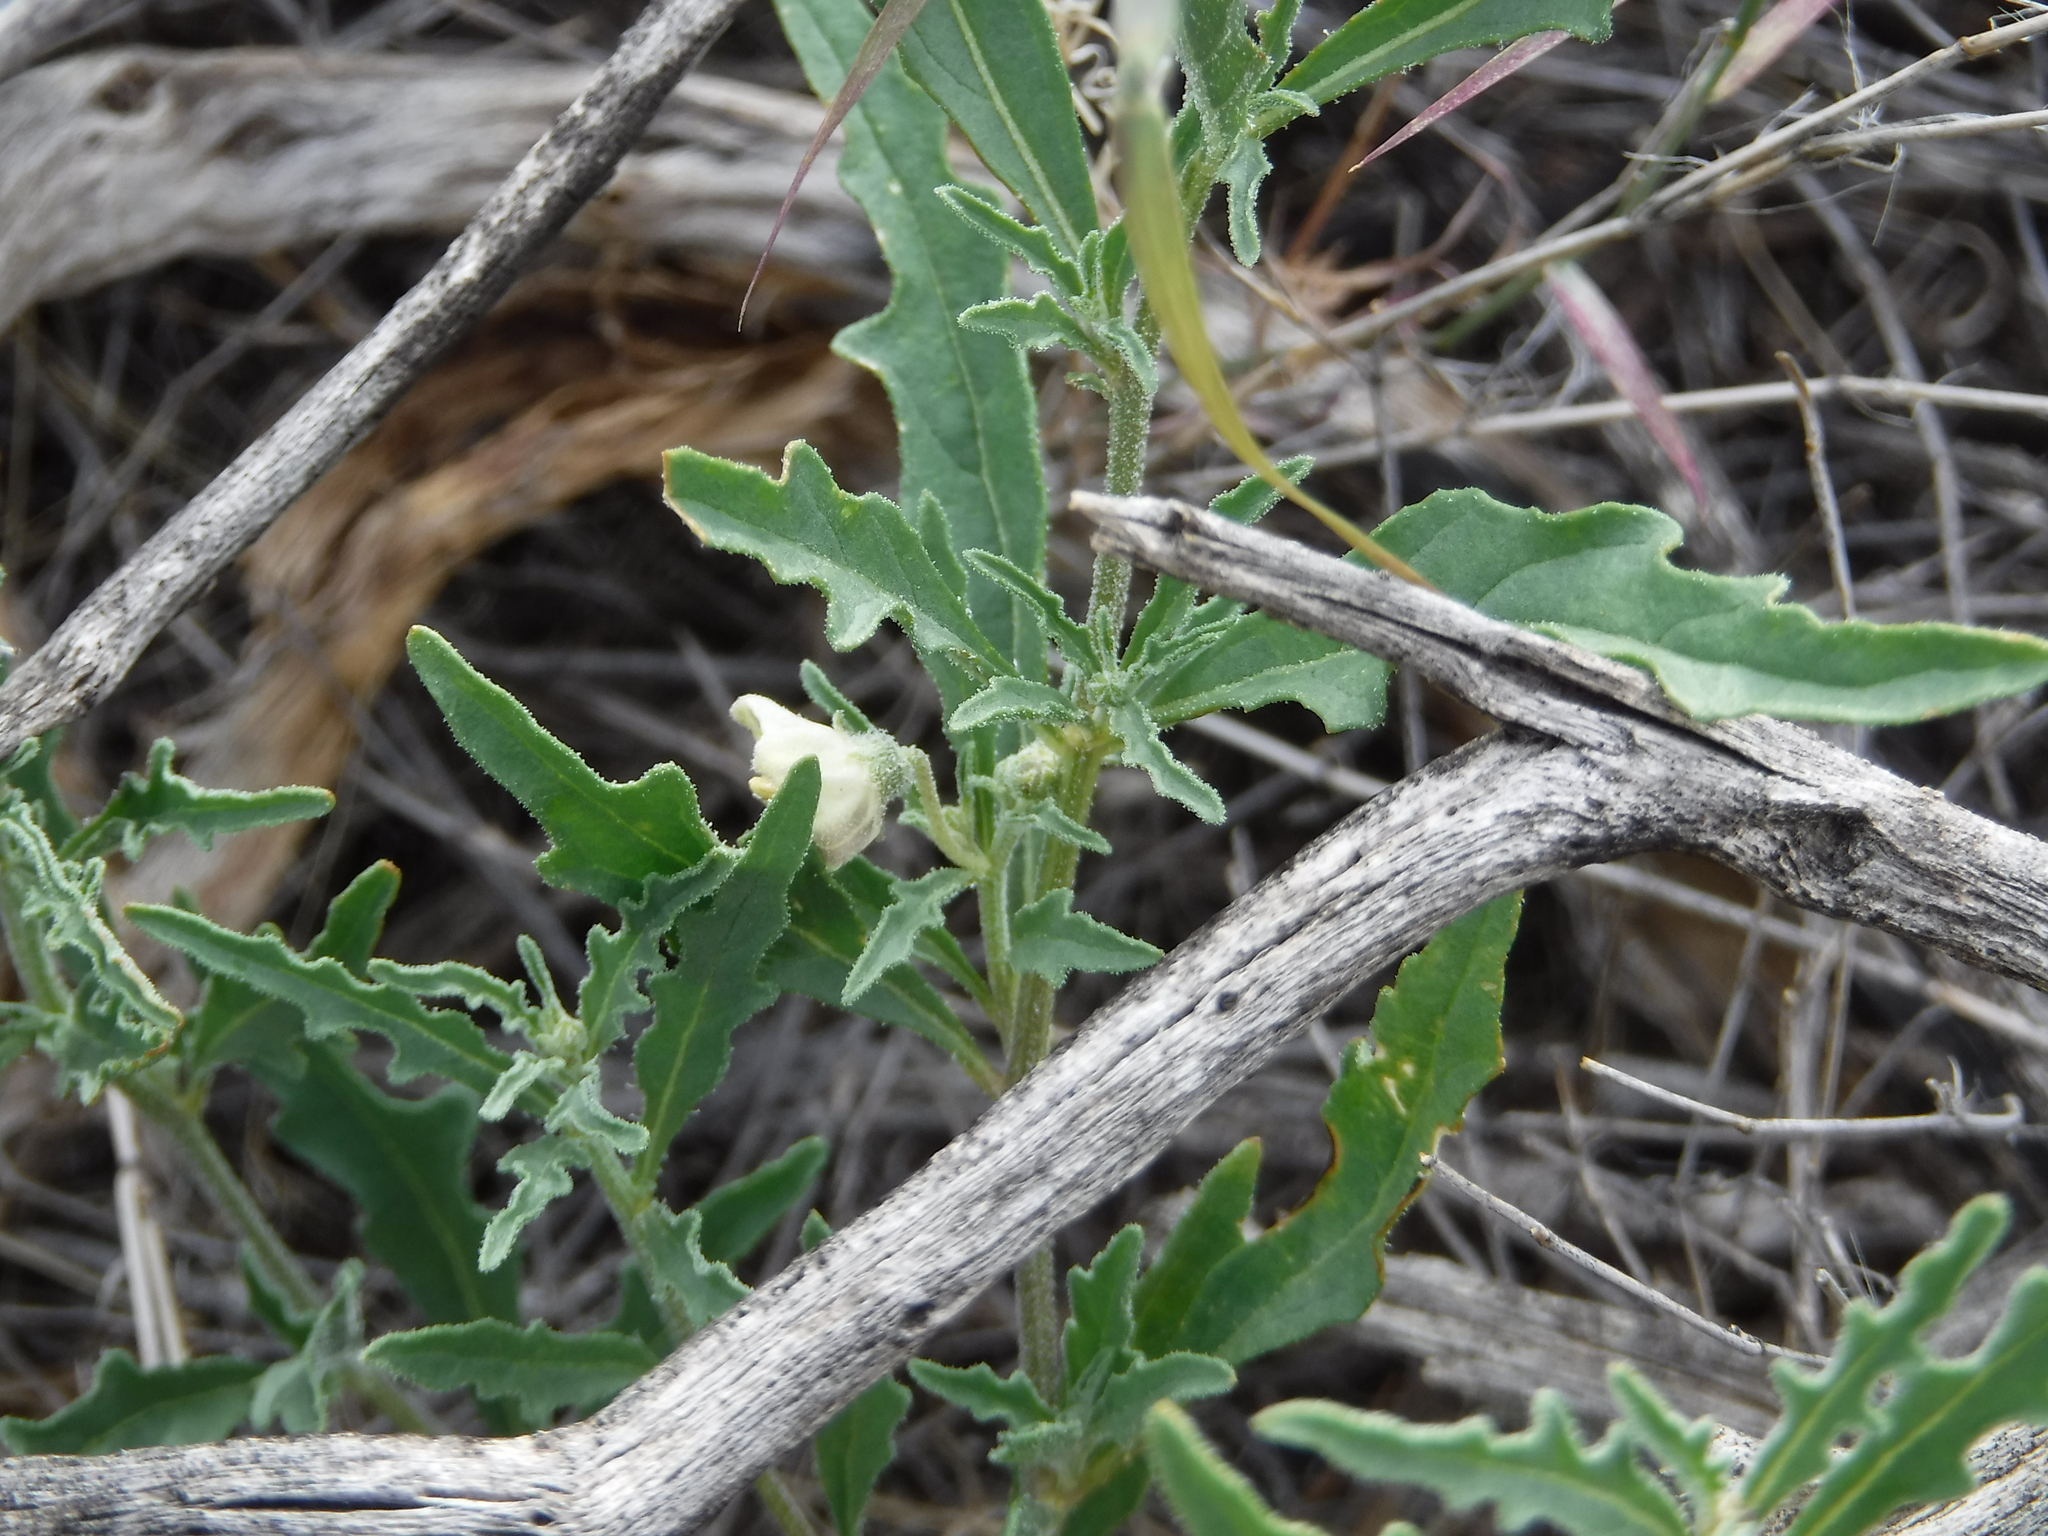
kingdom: Plantae
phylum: Tracheophyta
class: Magnoliopsida
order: Solanales
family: Solanaceae
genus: Chamaesaracha
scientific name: Chamaesaracha coronopus
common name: Smooth chamaesaracha
